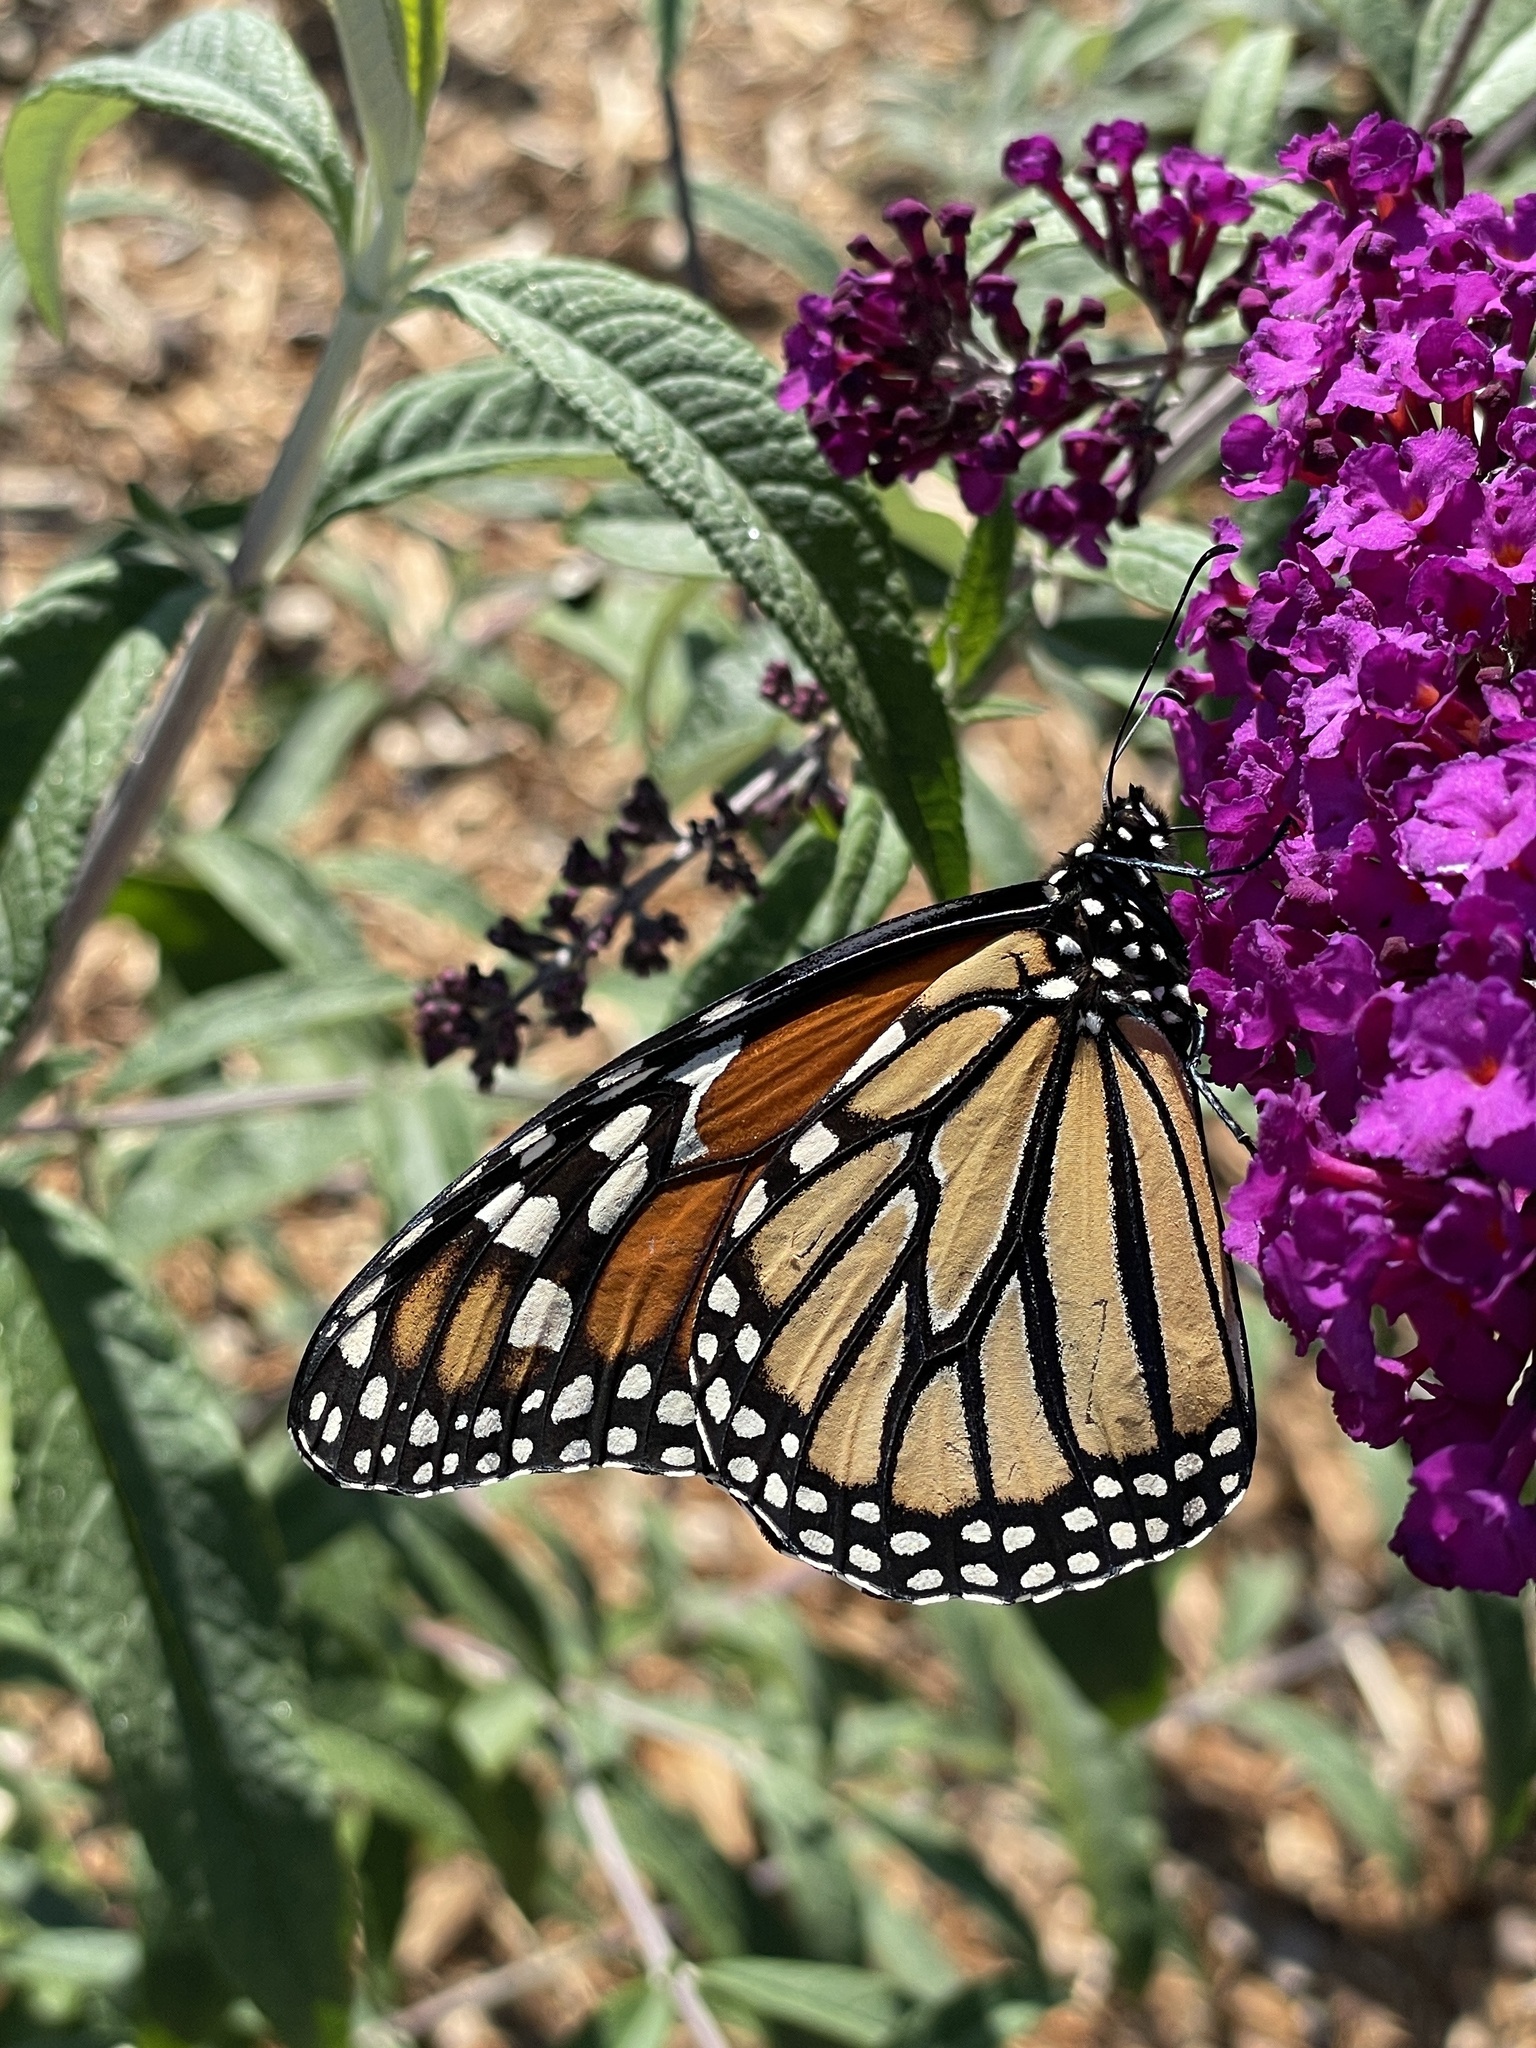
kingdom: Animalia
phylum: Arthropoda
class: Insecta
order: Lepidoptera
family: Nymphalidae
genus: Danaus
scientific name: Danaus plexippus
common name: Monarch
